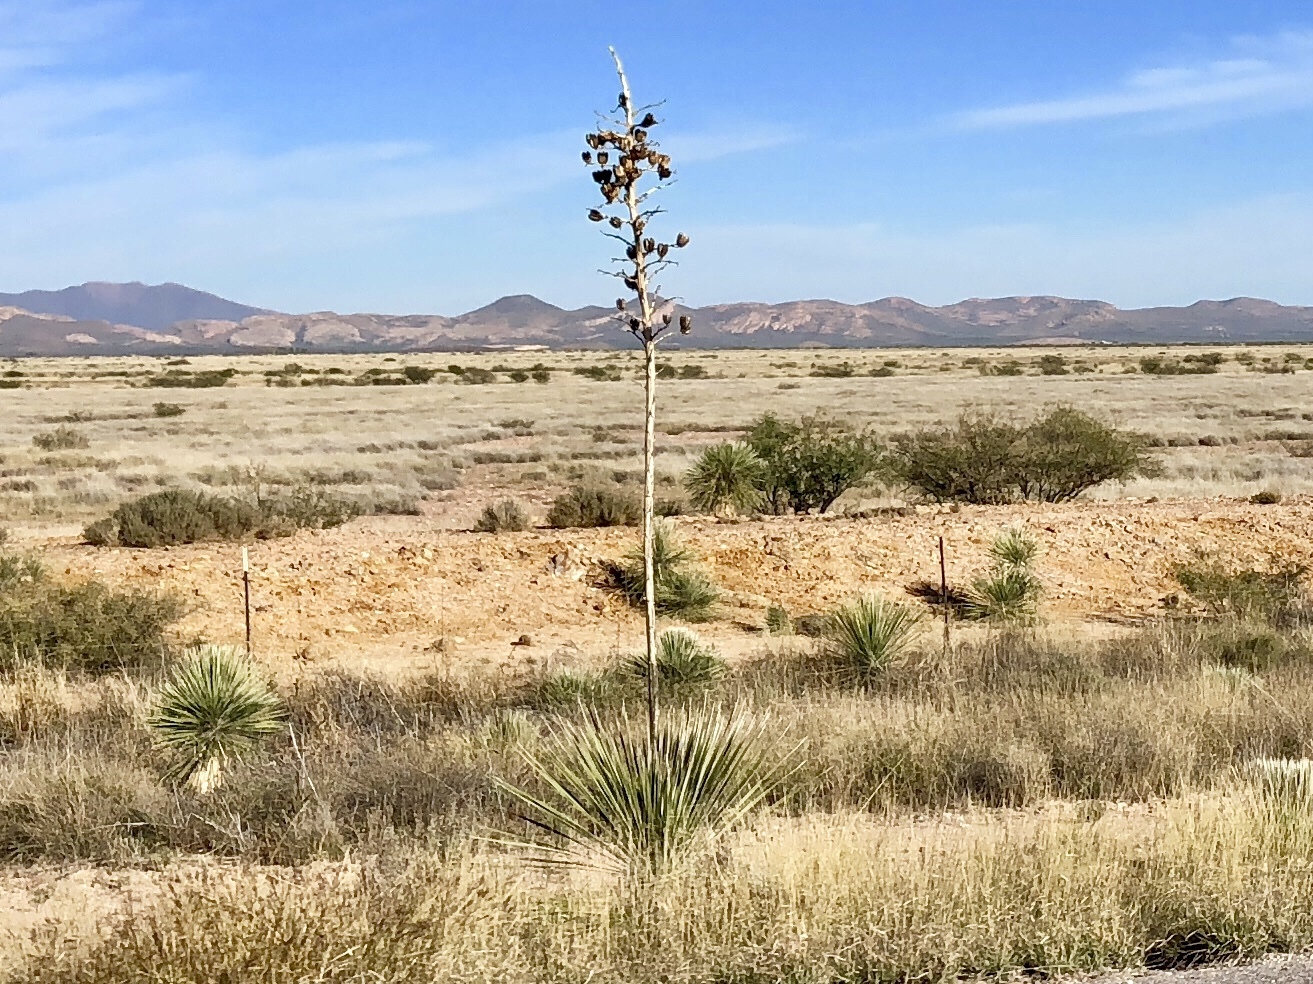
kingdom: Plantae
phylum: Tracheophyta
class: Liliopsida
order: Asparagales
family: Asparagaceae
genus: Yucca
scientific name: Yucca elata
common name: Palmella
